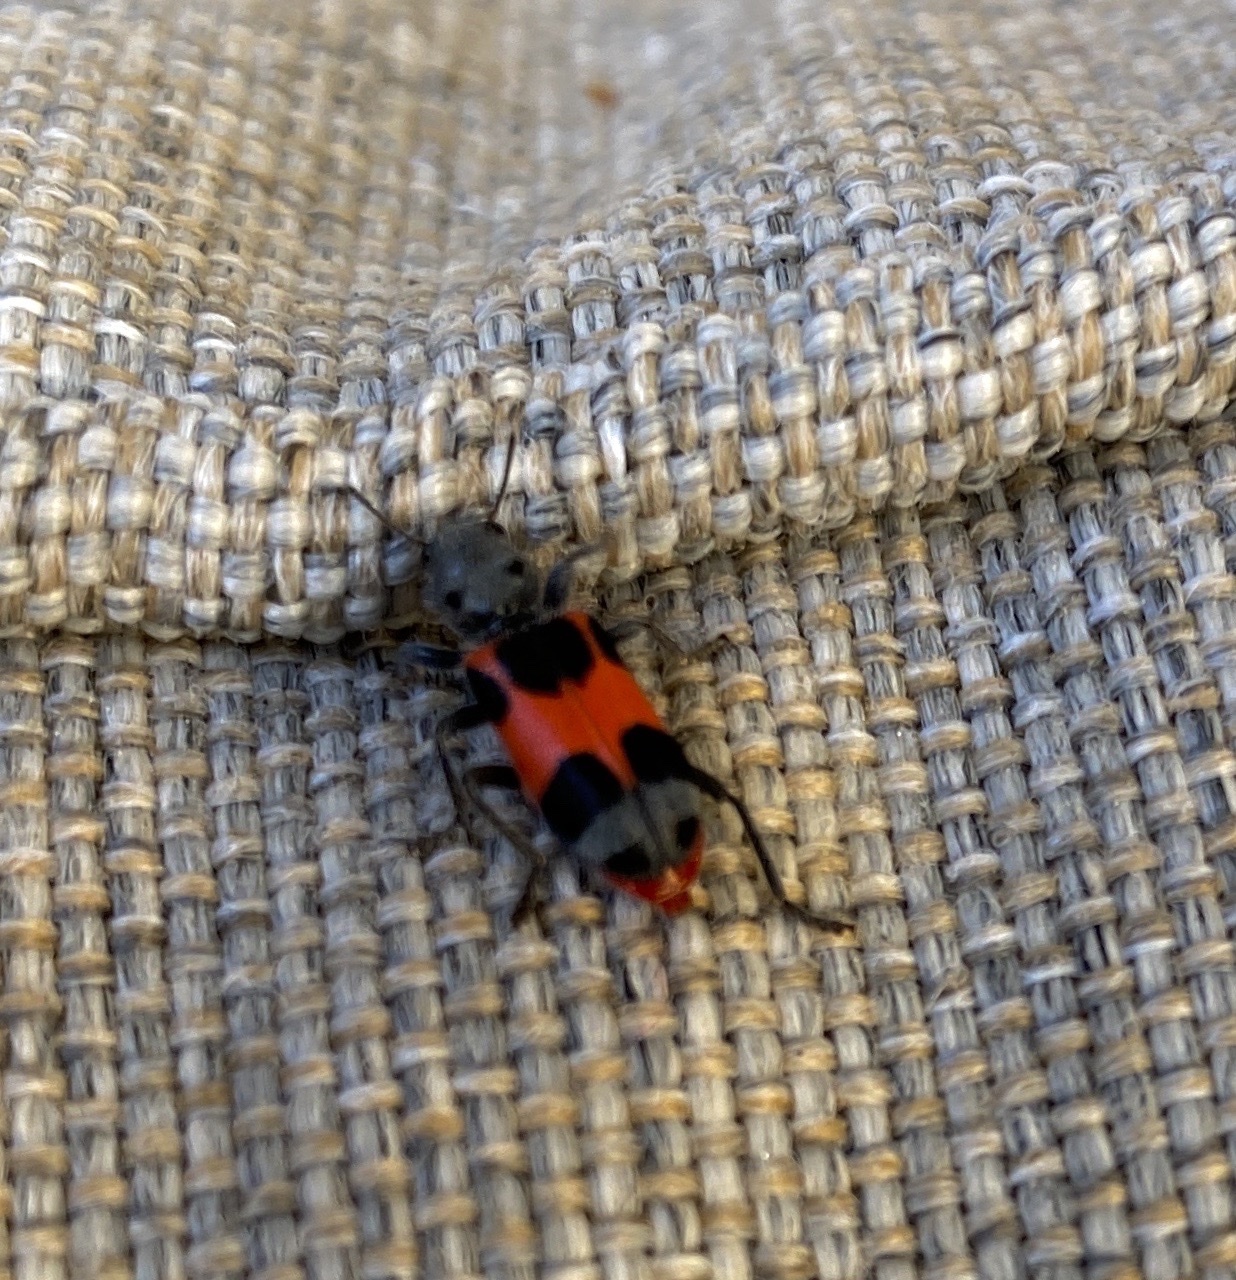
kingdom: Animalia
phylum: Arthropoda
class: Insecta
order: Coleoptera
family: Cleridae
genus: Enoclerus
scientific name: Enoclerus eximius
